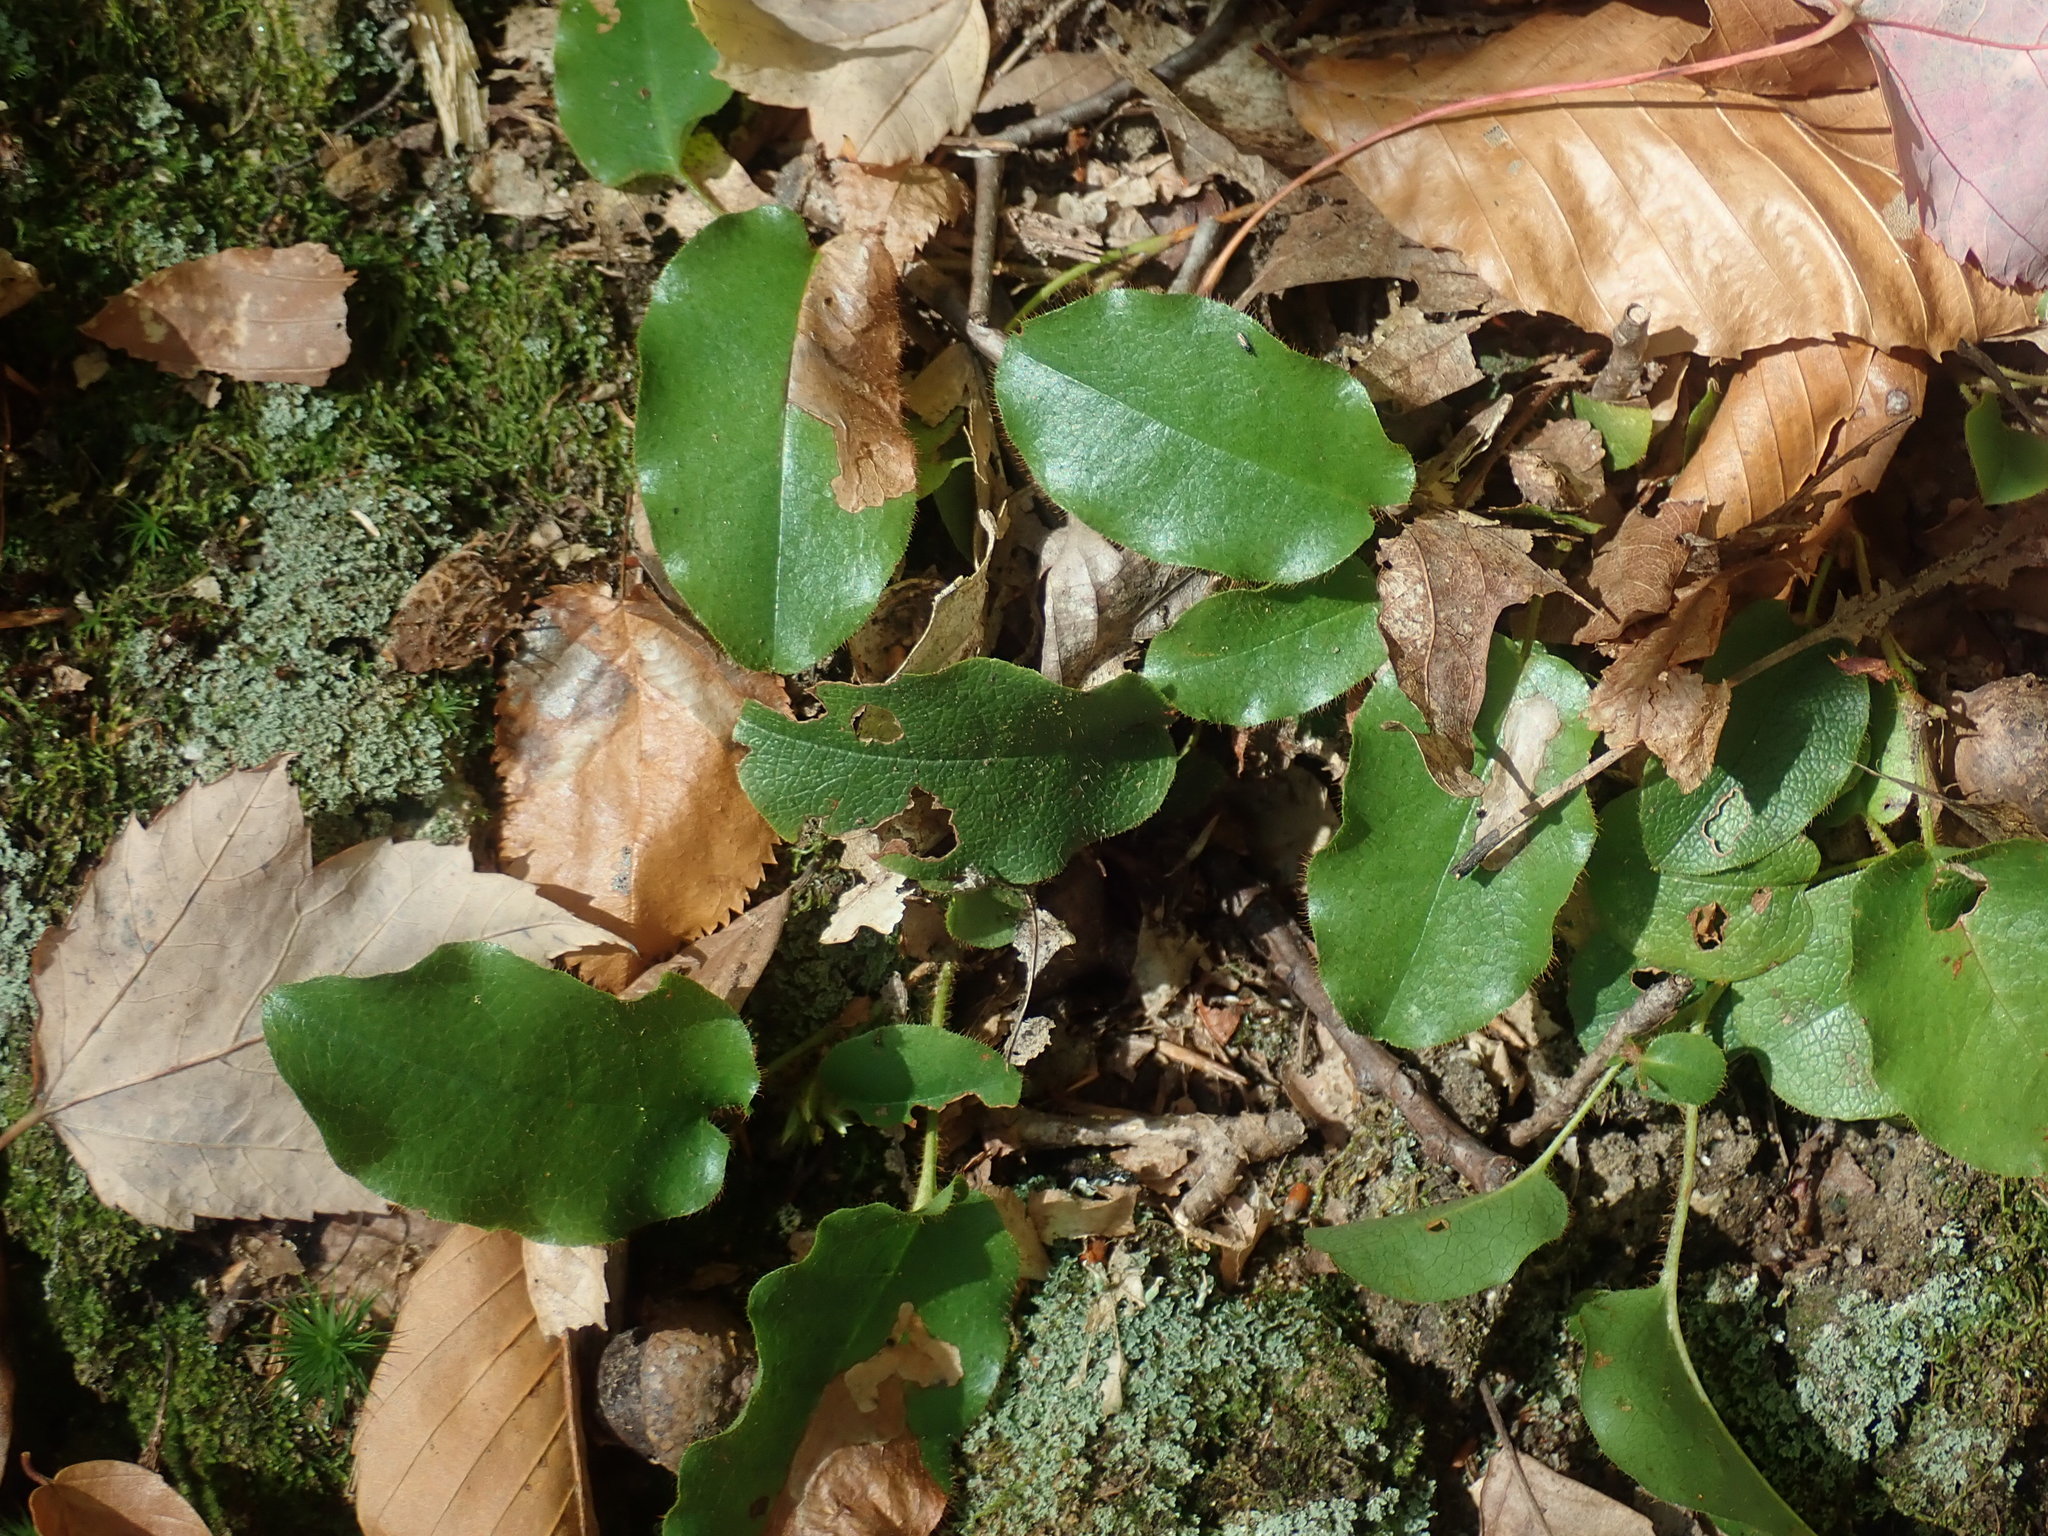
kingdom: Plantae
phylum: Tracheophyta
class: Magnoliopsida
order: Ericales
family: Ericaceae
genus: Epigaea
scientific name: Epigaea repens
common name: Gravelroot
